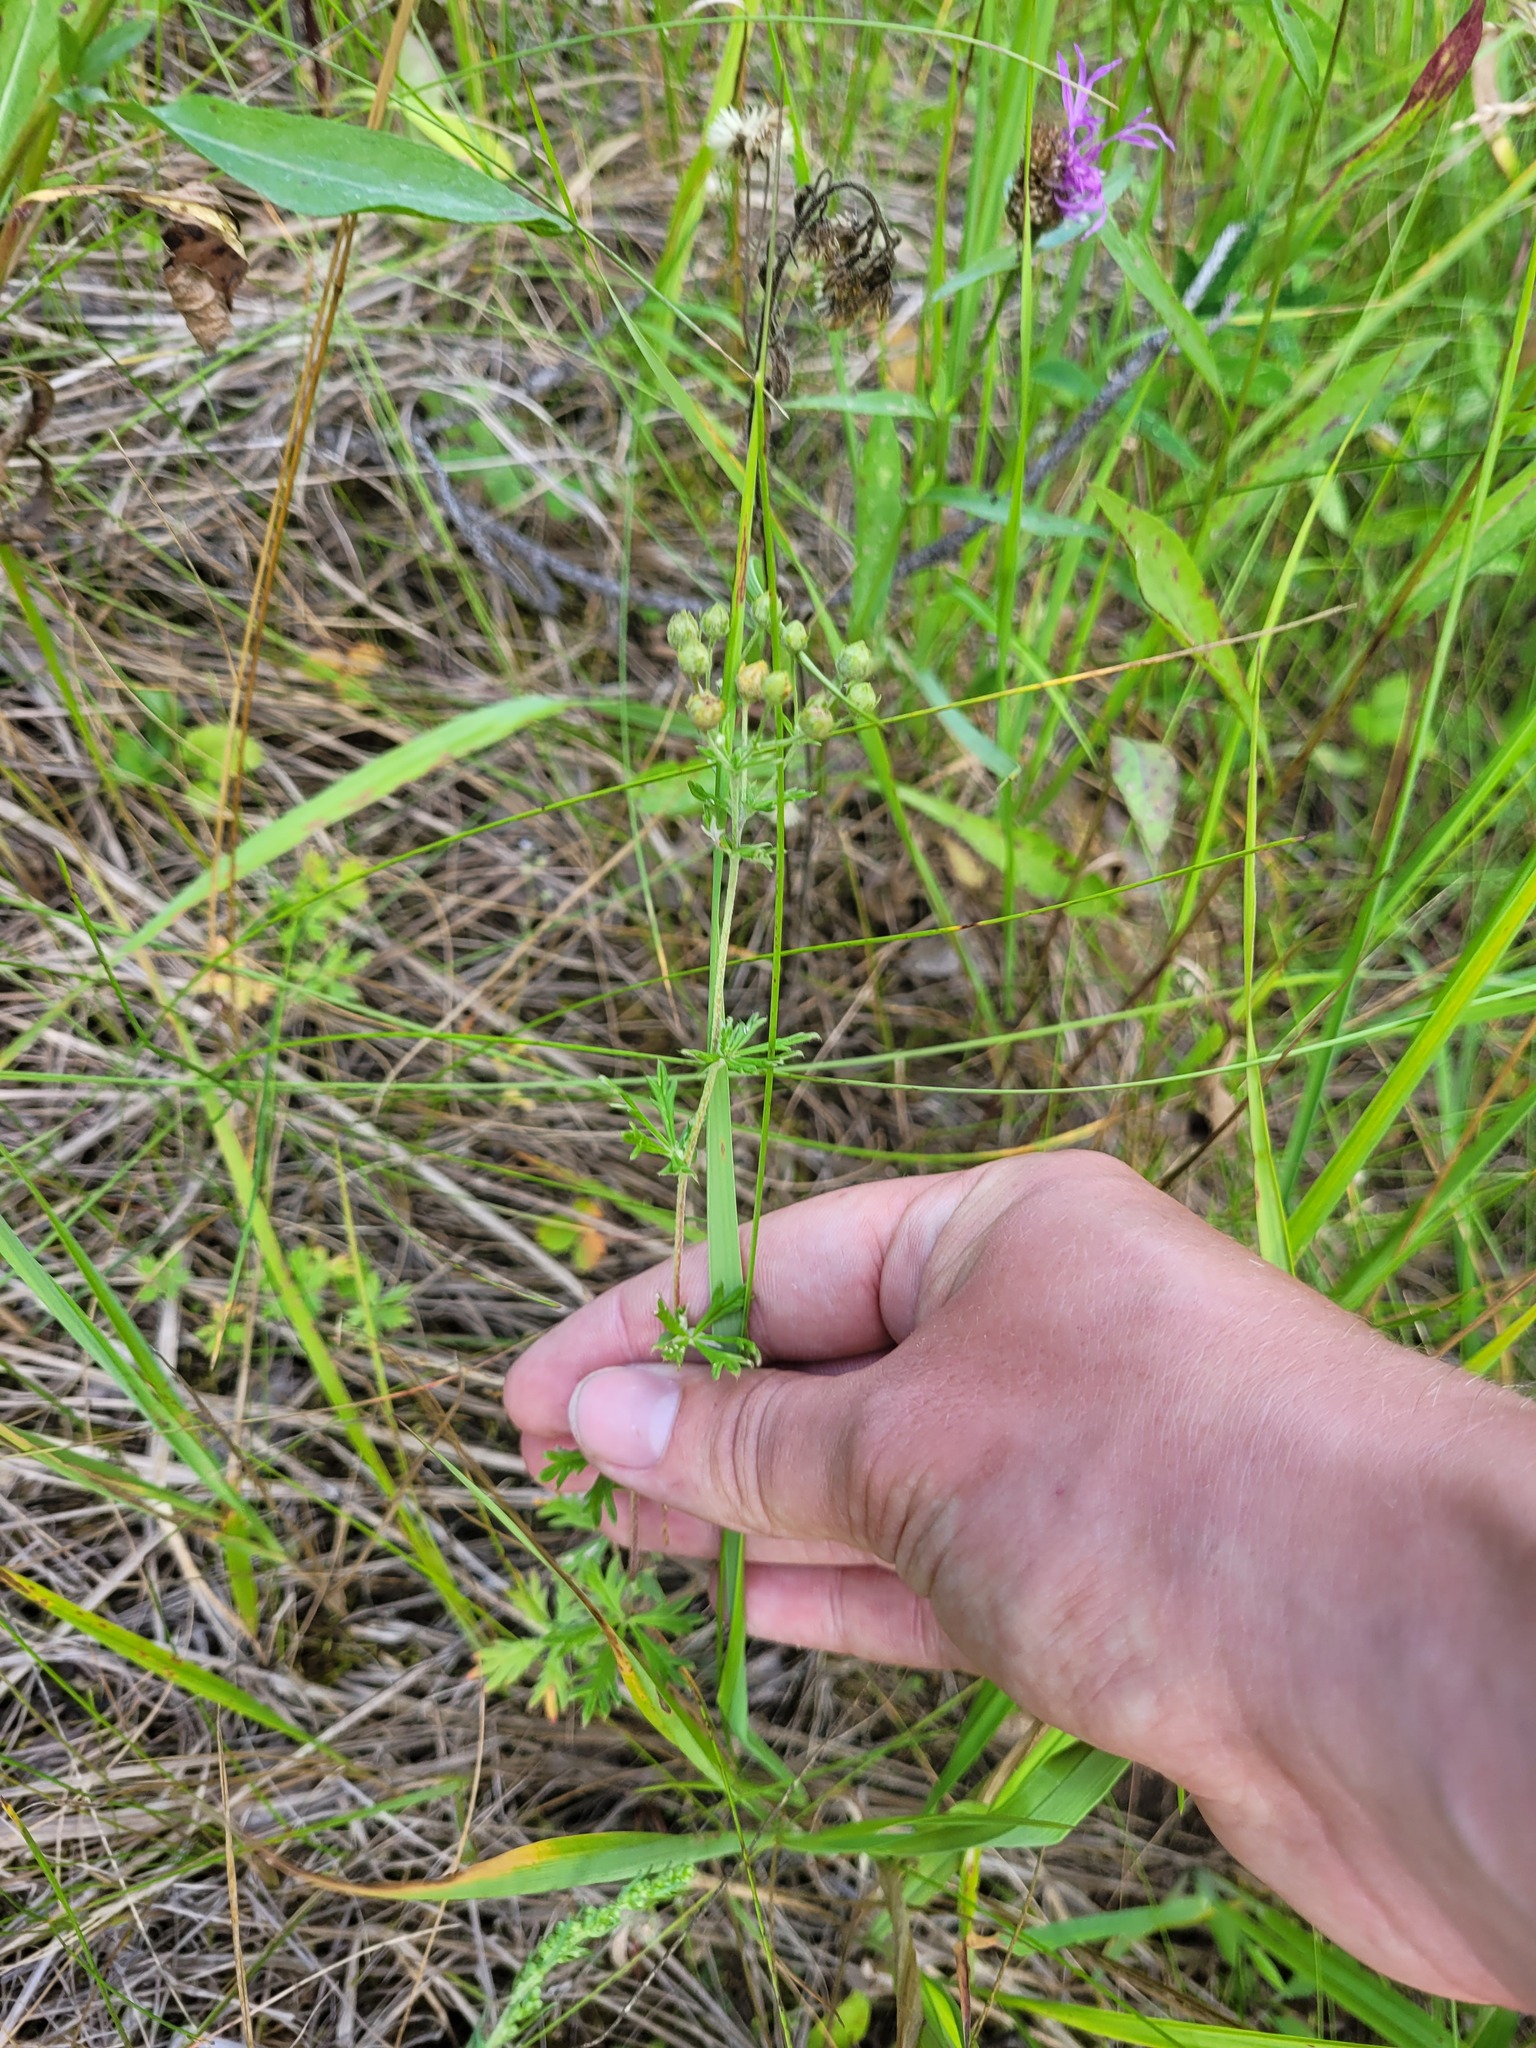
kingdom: Plantae
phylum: Tracheophyta
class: Magnoliopsida
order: Rosales
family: Rosaceae
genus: Potentilla
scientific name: Potentilla argentea
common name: Hoary cinquefoil
